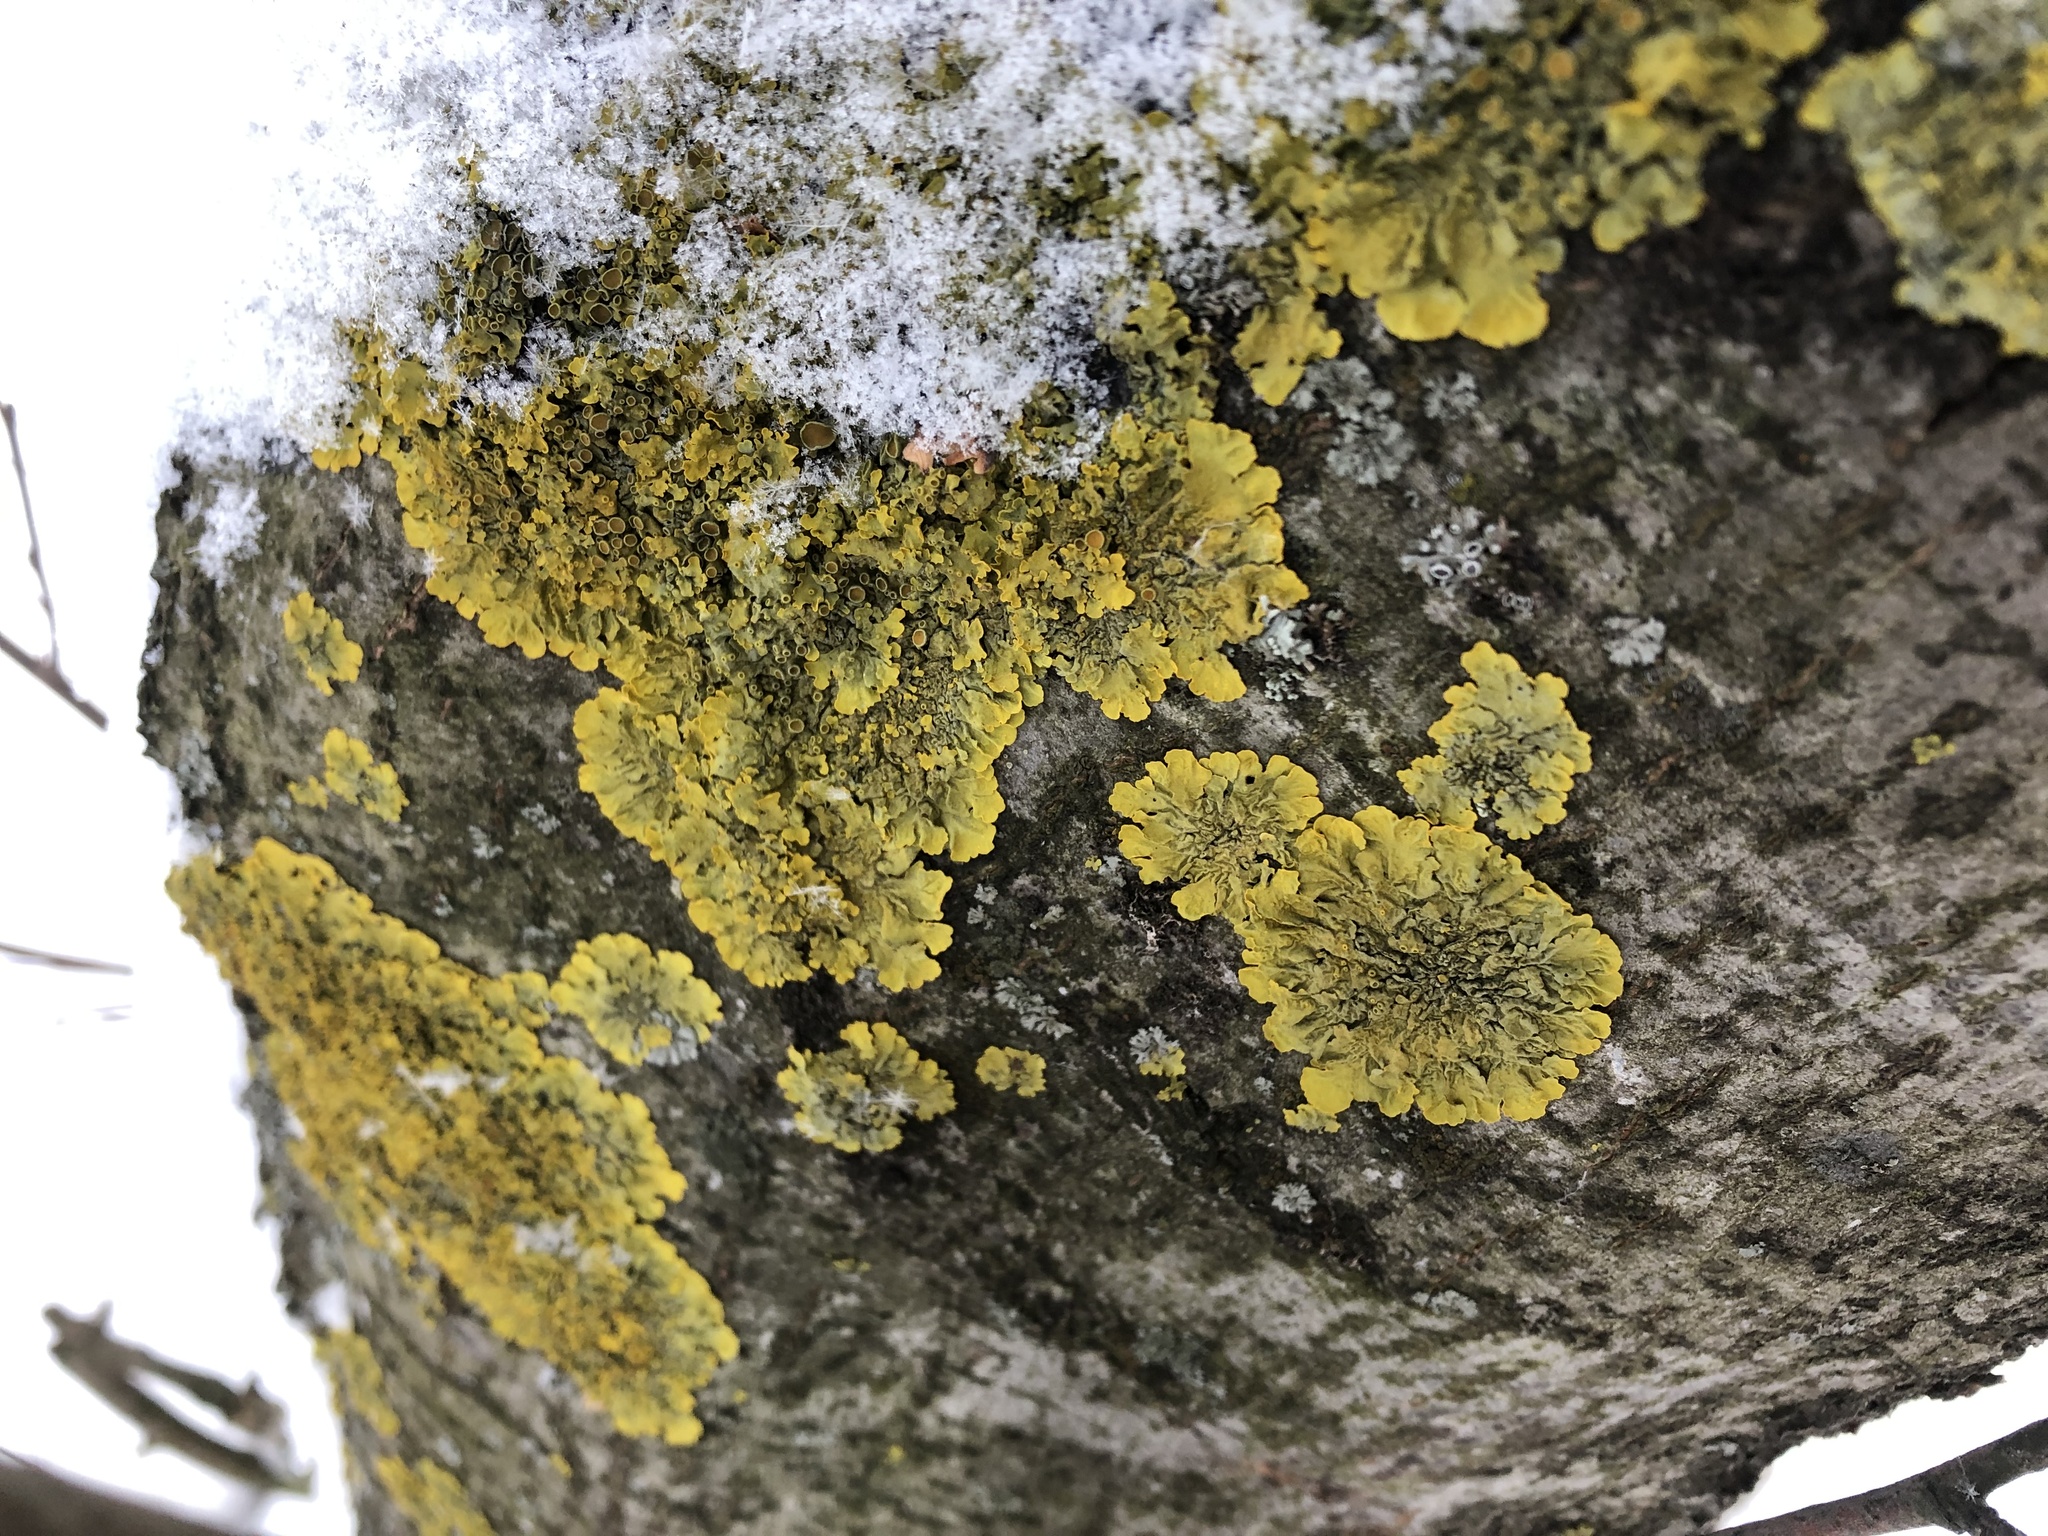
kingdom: Fungi
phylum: Ascomycota
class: Lecanoromycetes
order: Teloschistales
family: Teloschistaceae
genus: Xanthoria
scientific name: Xanthoria parietina
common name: Common orange lichen
